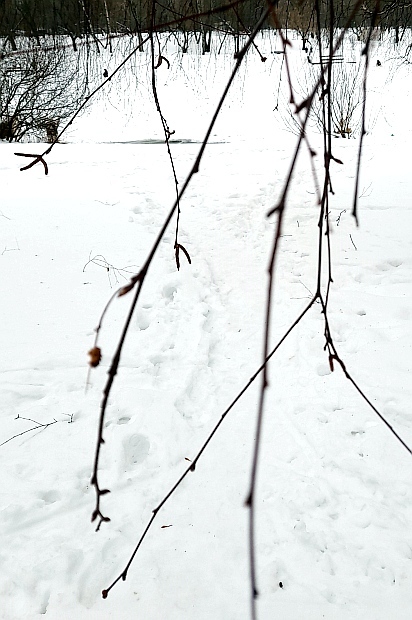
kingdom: Plantae
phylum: Tracheophyta
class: Magnoliopsida
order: Fagales
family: Betulaceae
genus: Betula
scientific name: Betula pendula
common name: Silver birch
